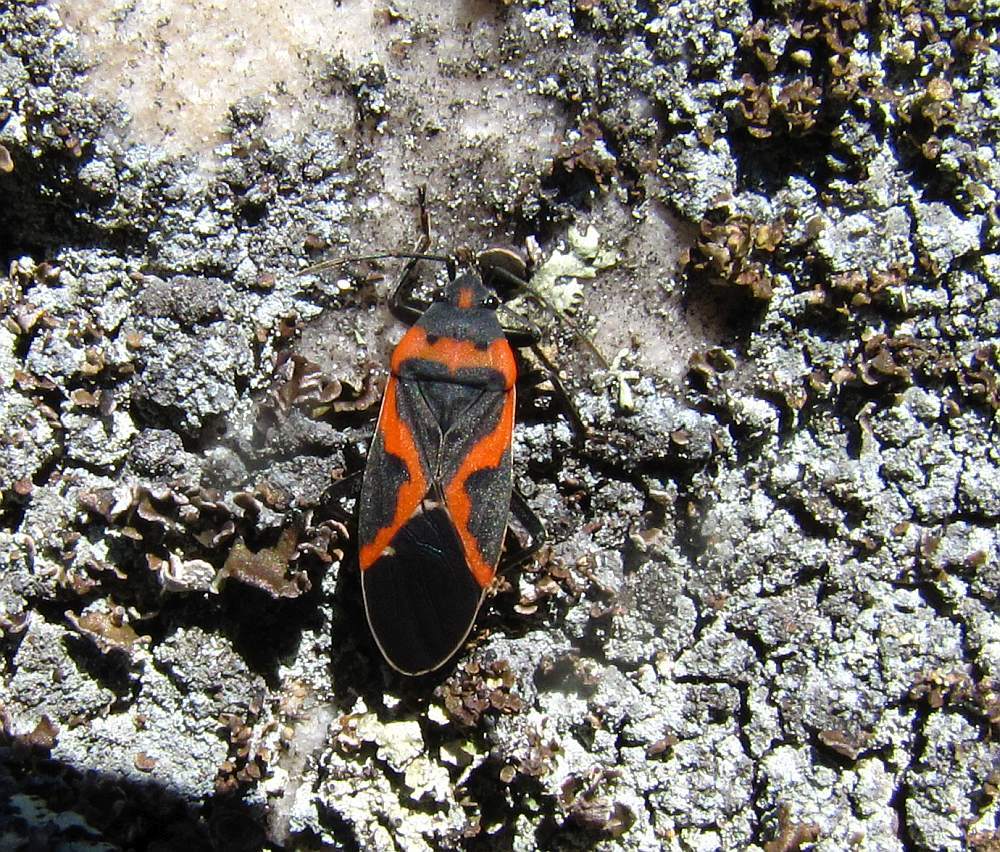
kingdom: Animalia
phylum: Arthropoda
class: Insecta
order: Hemiptera
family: Lygaeidae
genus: Lygaeus
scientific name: Lygaeus kalmii
